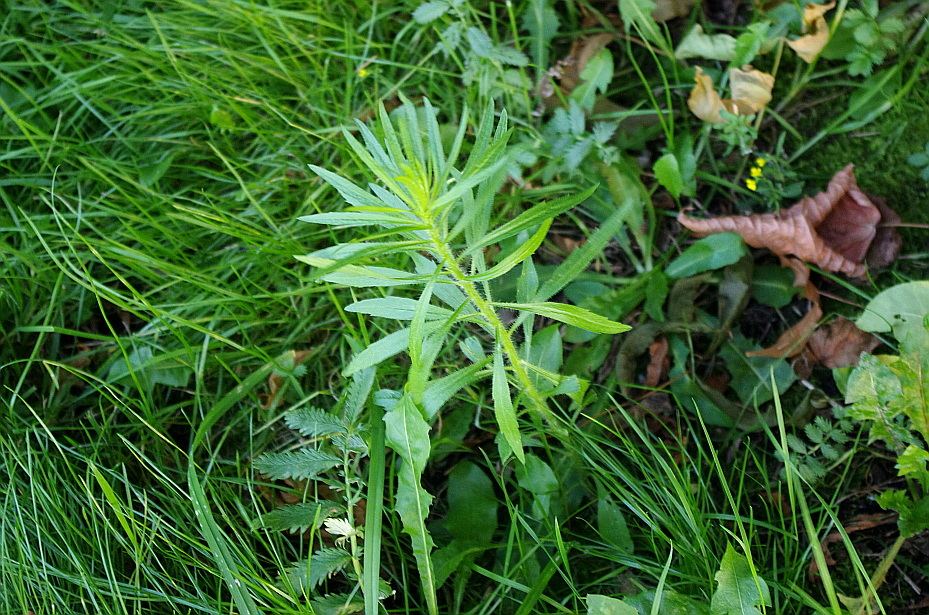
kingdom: Plantae
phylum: Tracheophyta
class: Magnoliopsida
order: Asterales
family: Asteraceae
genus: Erigeron
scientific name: Erigeron canadensis
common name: Canadian fleabane
